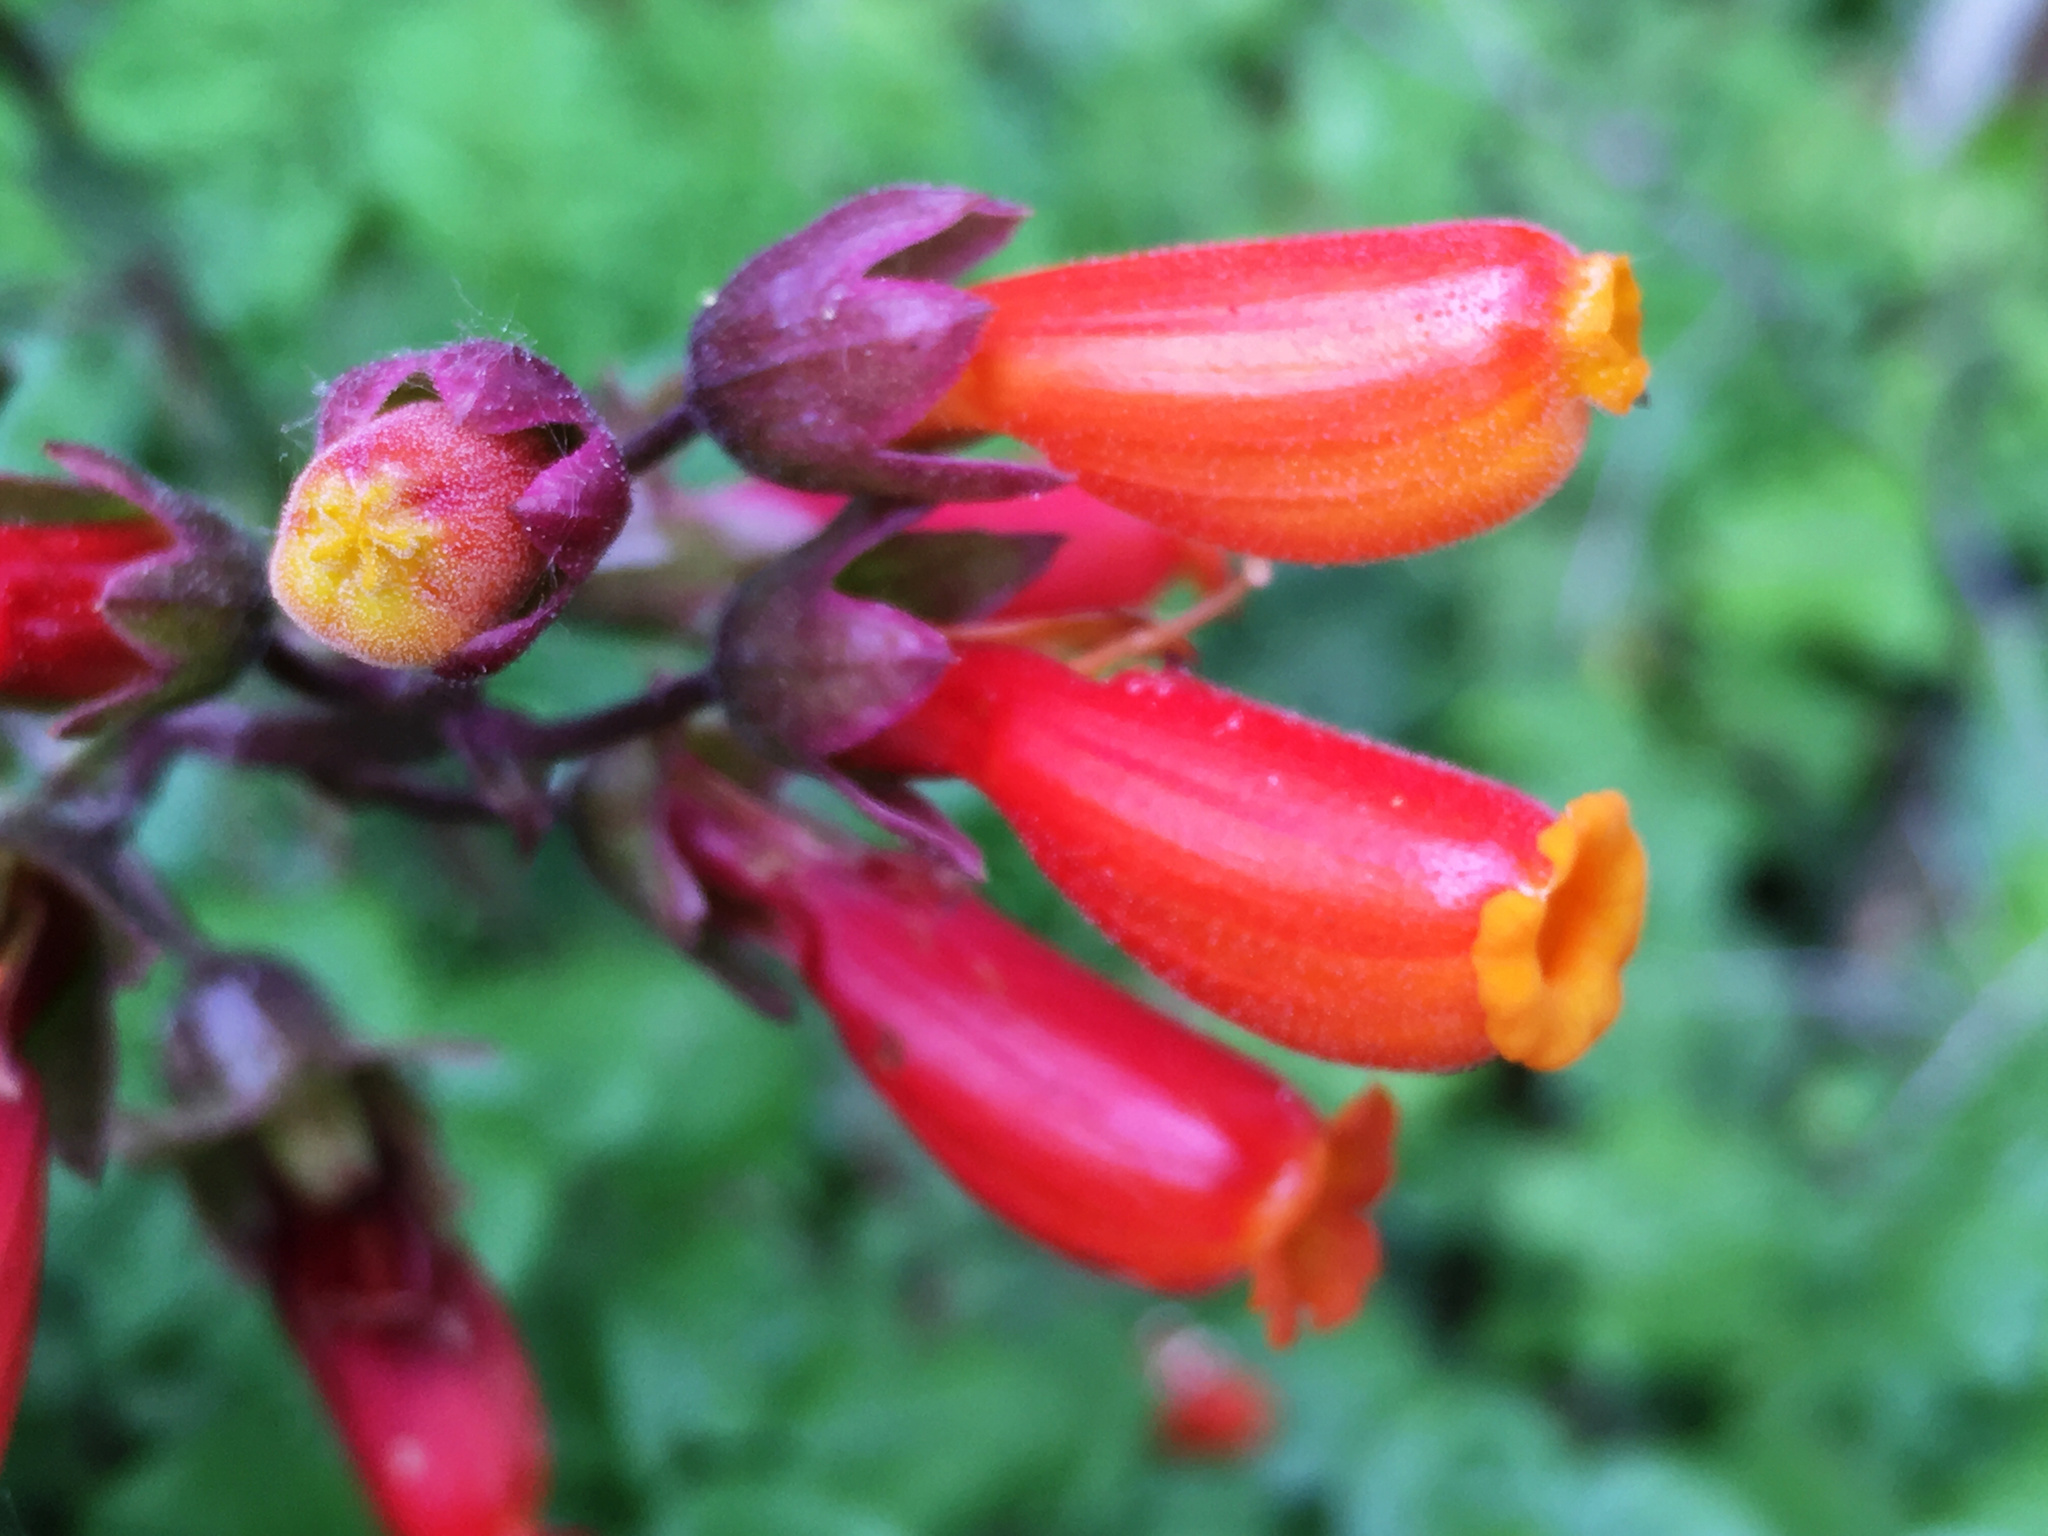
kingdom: Plantae
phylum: Tracheophyta
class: Magnoliopsida
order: Lamiales
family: Bignoniaceae
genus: Eccremocarpus
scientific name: Eccremocarpus scaber
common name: Chilean glory-flower
